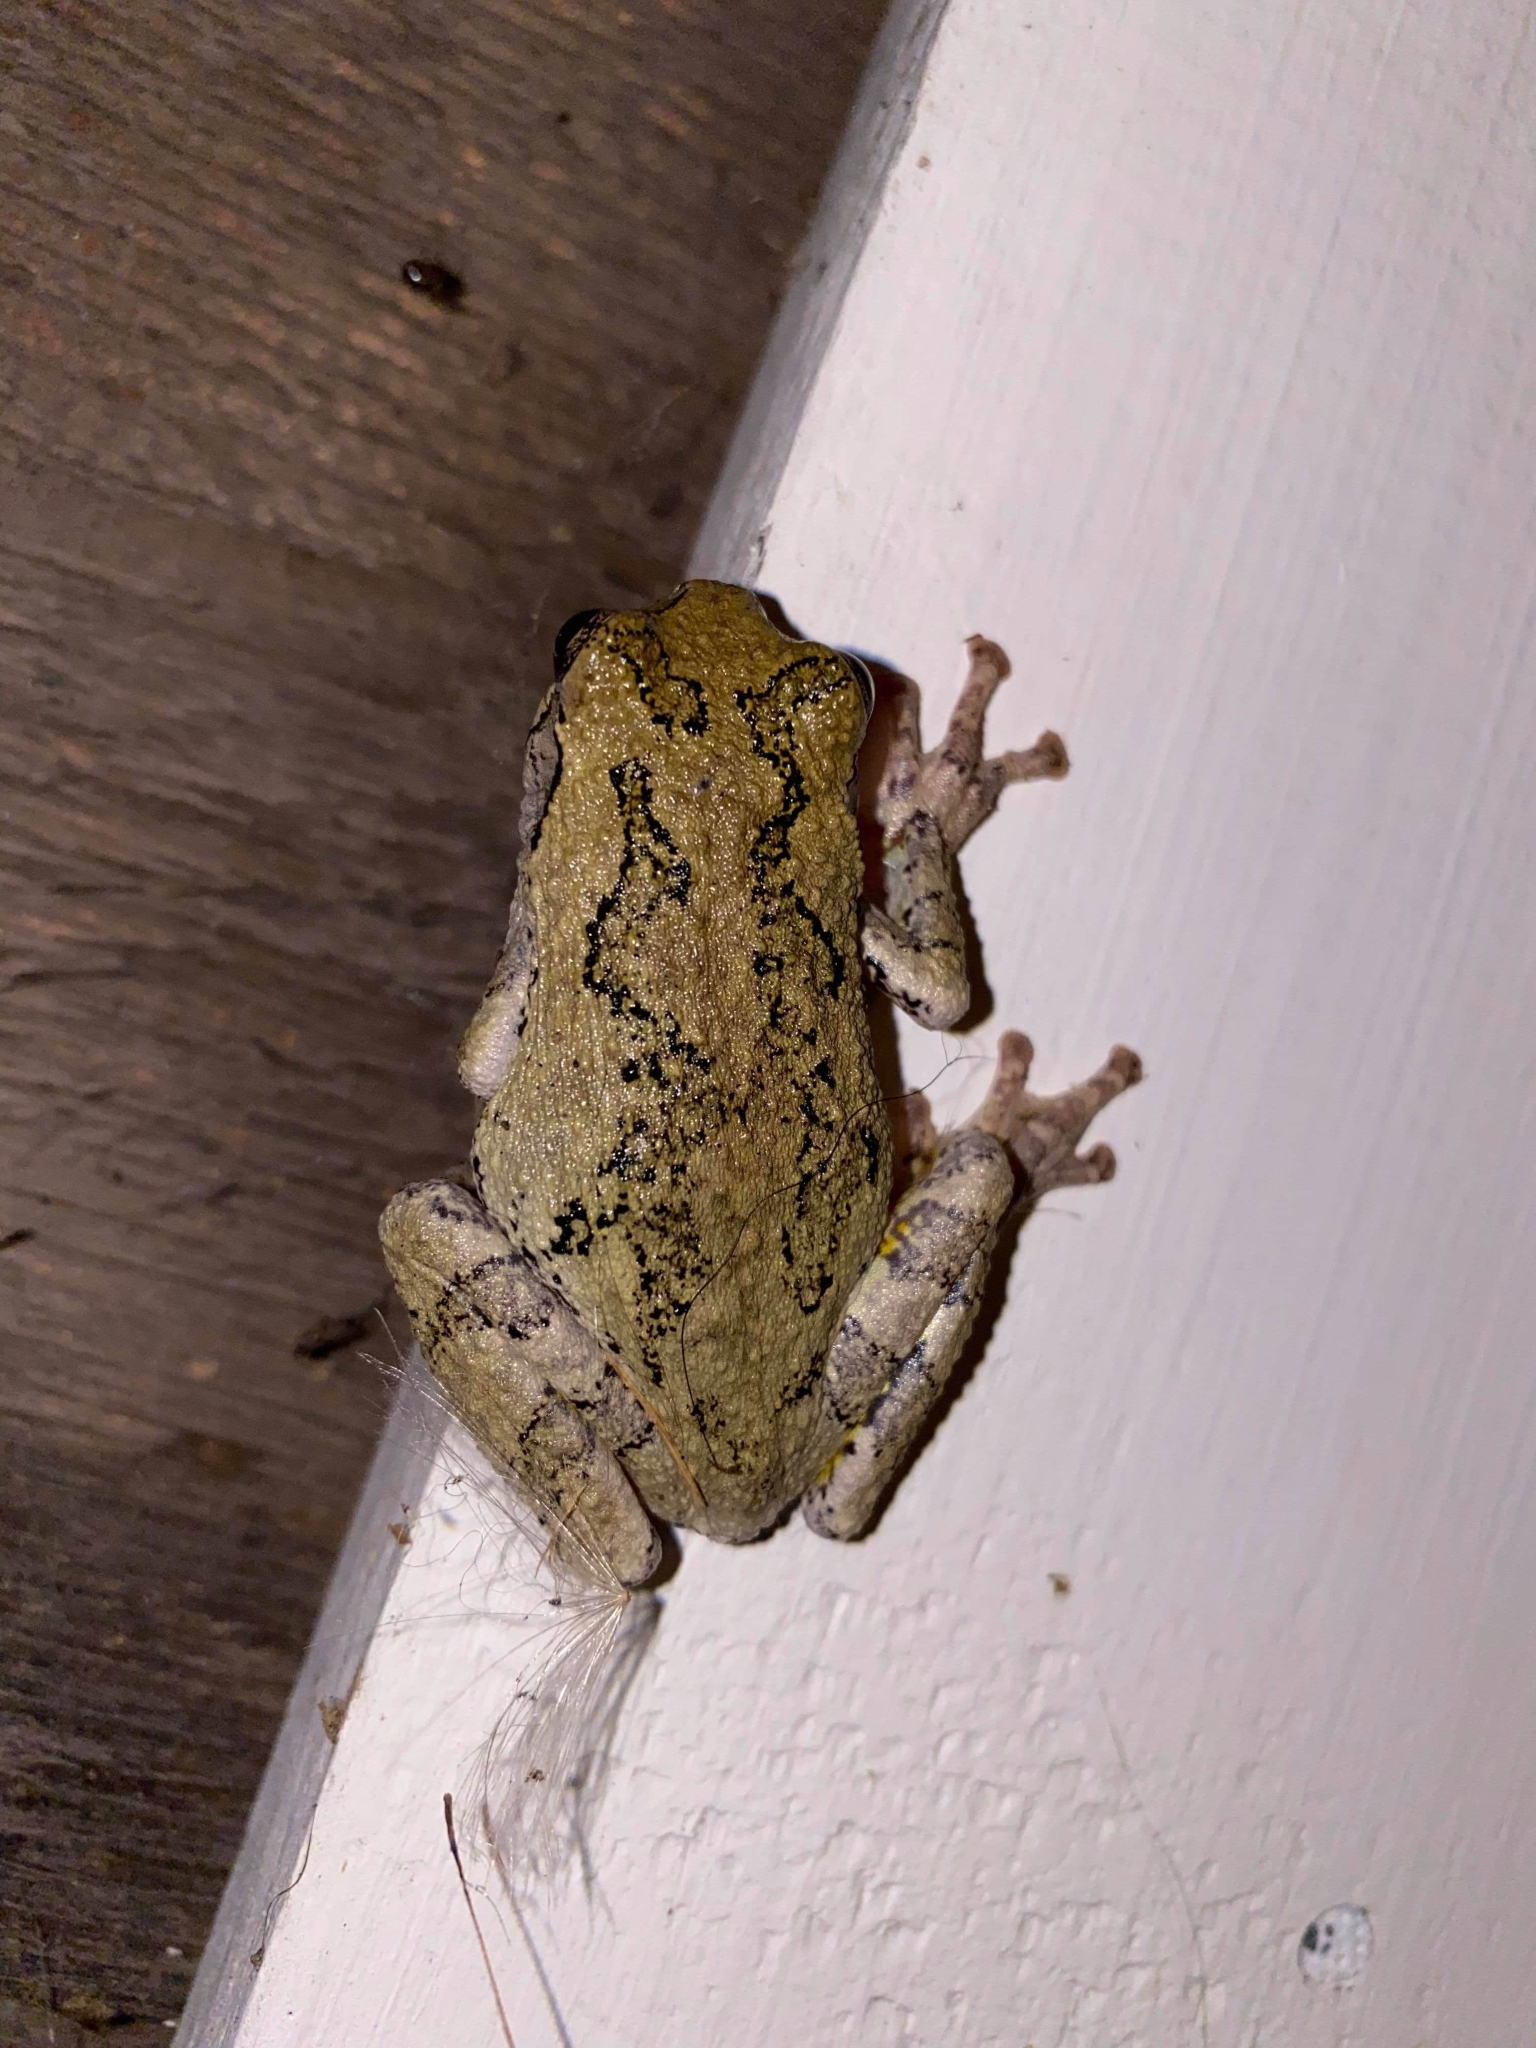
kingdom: Animalia
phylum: Chordata
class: Amphibia
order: Anura
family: Hylidae
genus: Dryophytes
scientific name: Dryophytes versicolor
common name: Gray treefrog
